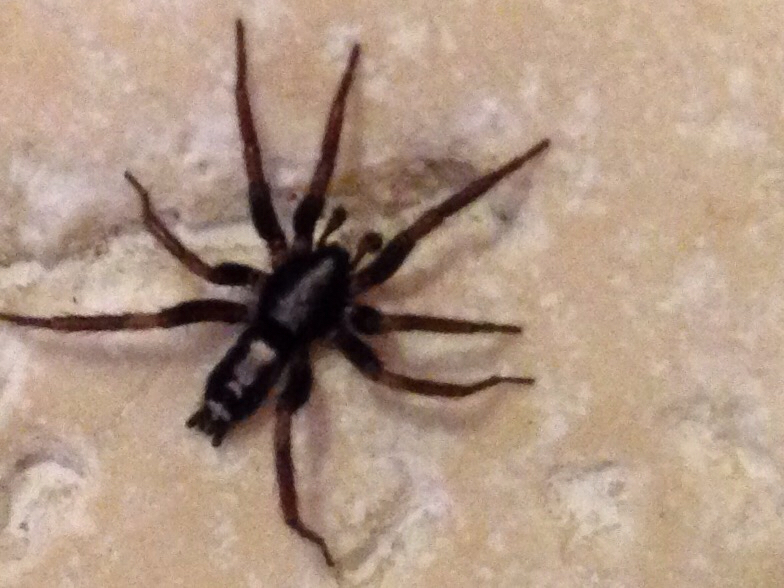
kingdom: Animalia
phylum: Arthropoda
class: Arachnida
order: Araneae
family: Gnaphosidae
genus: Herpyllus
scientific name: Herpyllus ecclesiasticus
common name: Eastern parson spider
